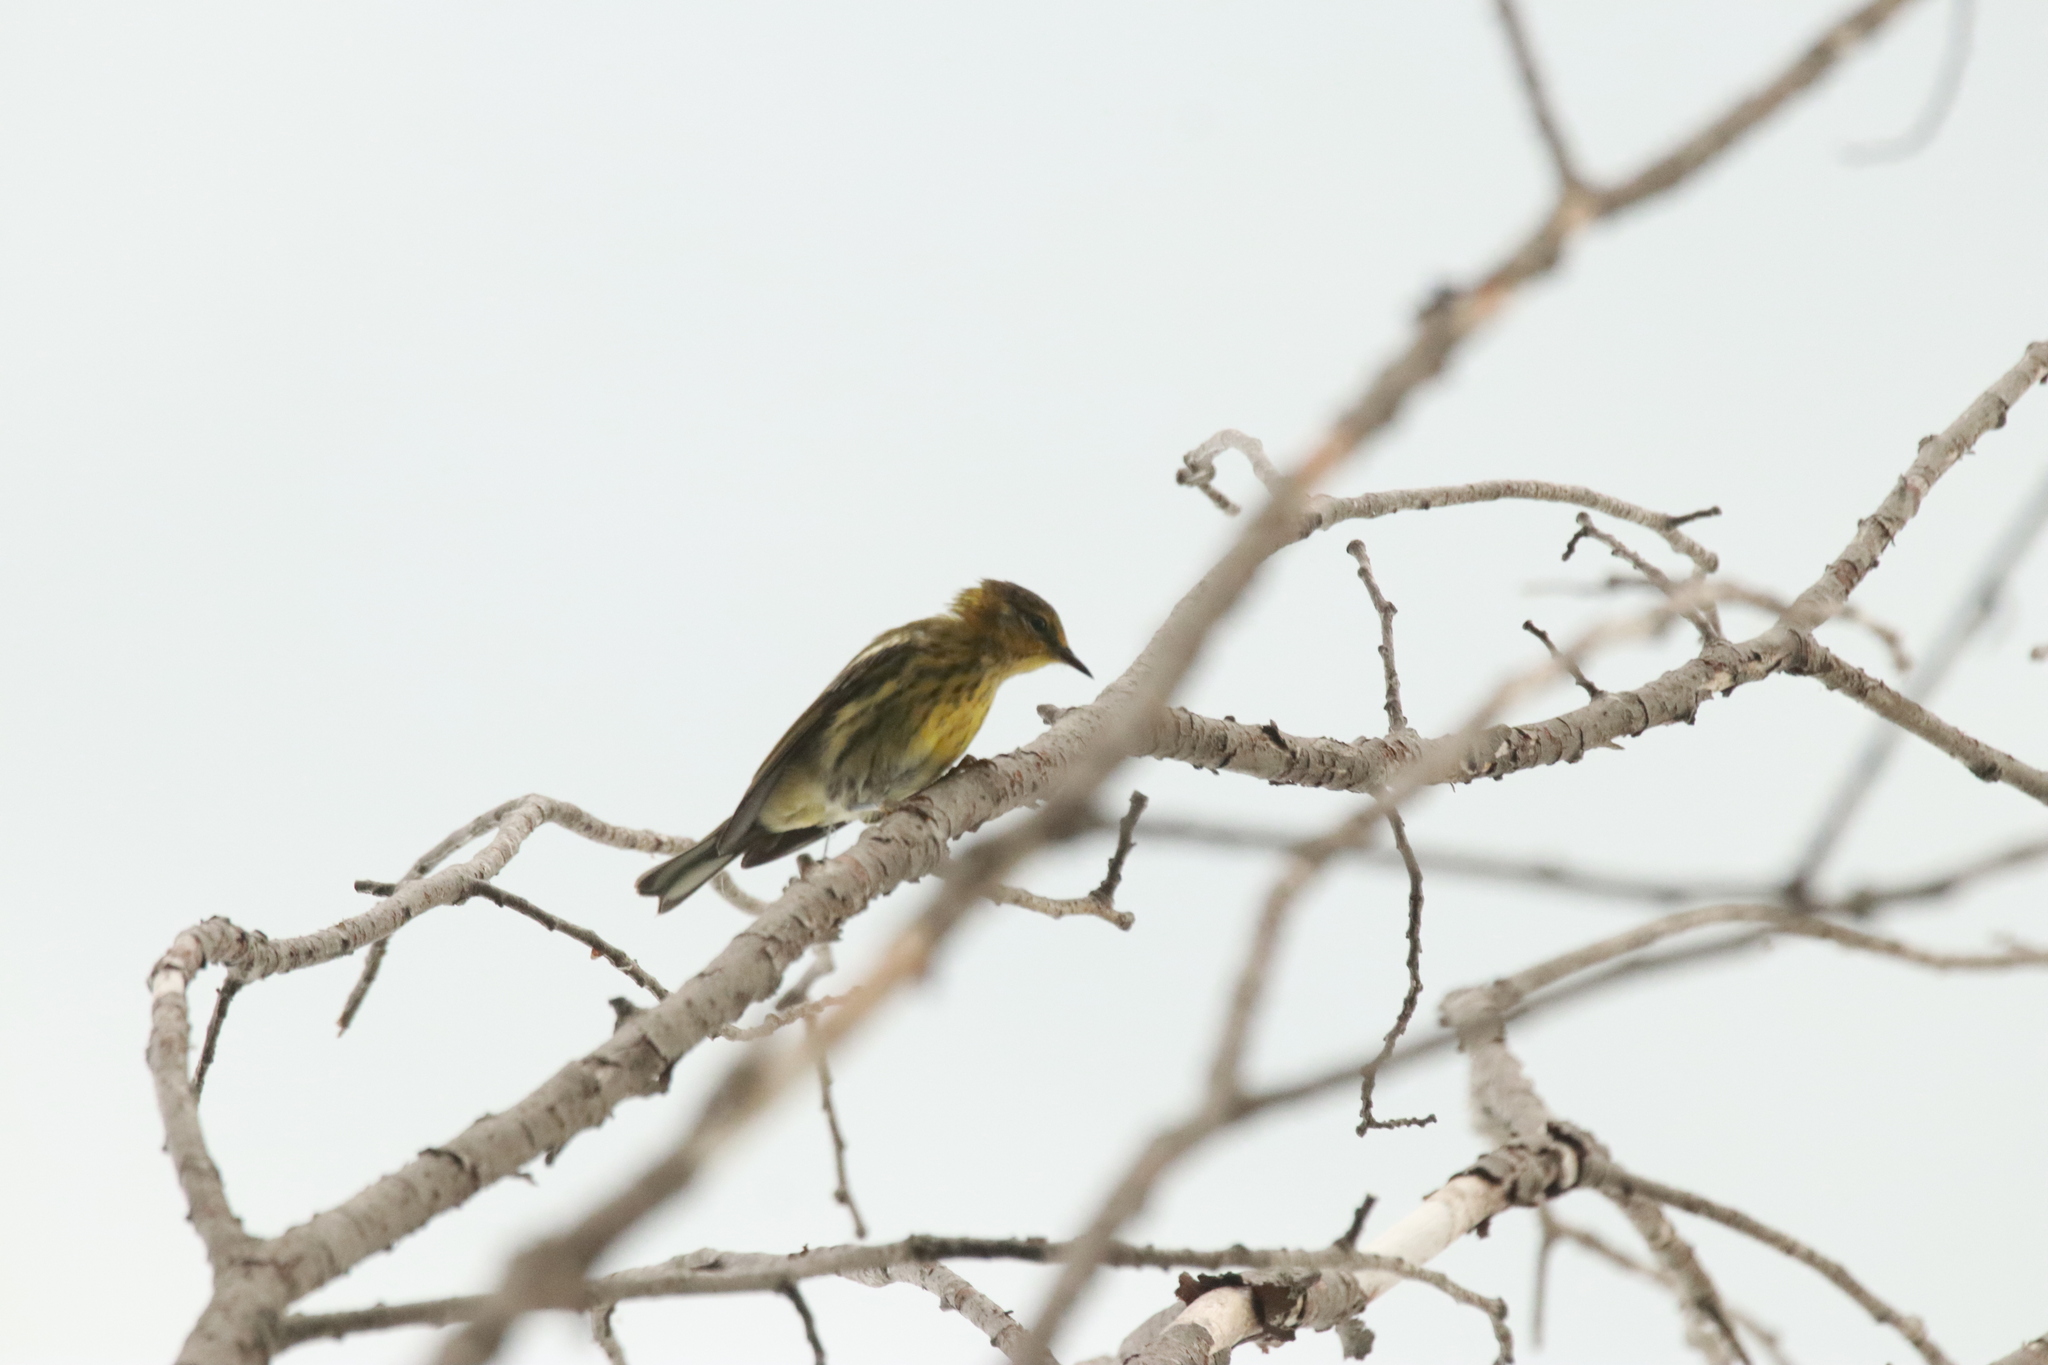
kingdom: Animalia
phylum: Chordata
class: Aves
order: Passeriformes
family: Parulidae
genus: Setophaga
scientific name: Setophaga tigrina
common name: Cape may warbler
